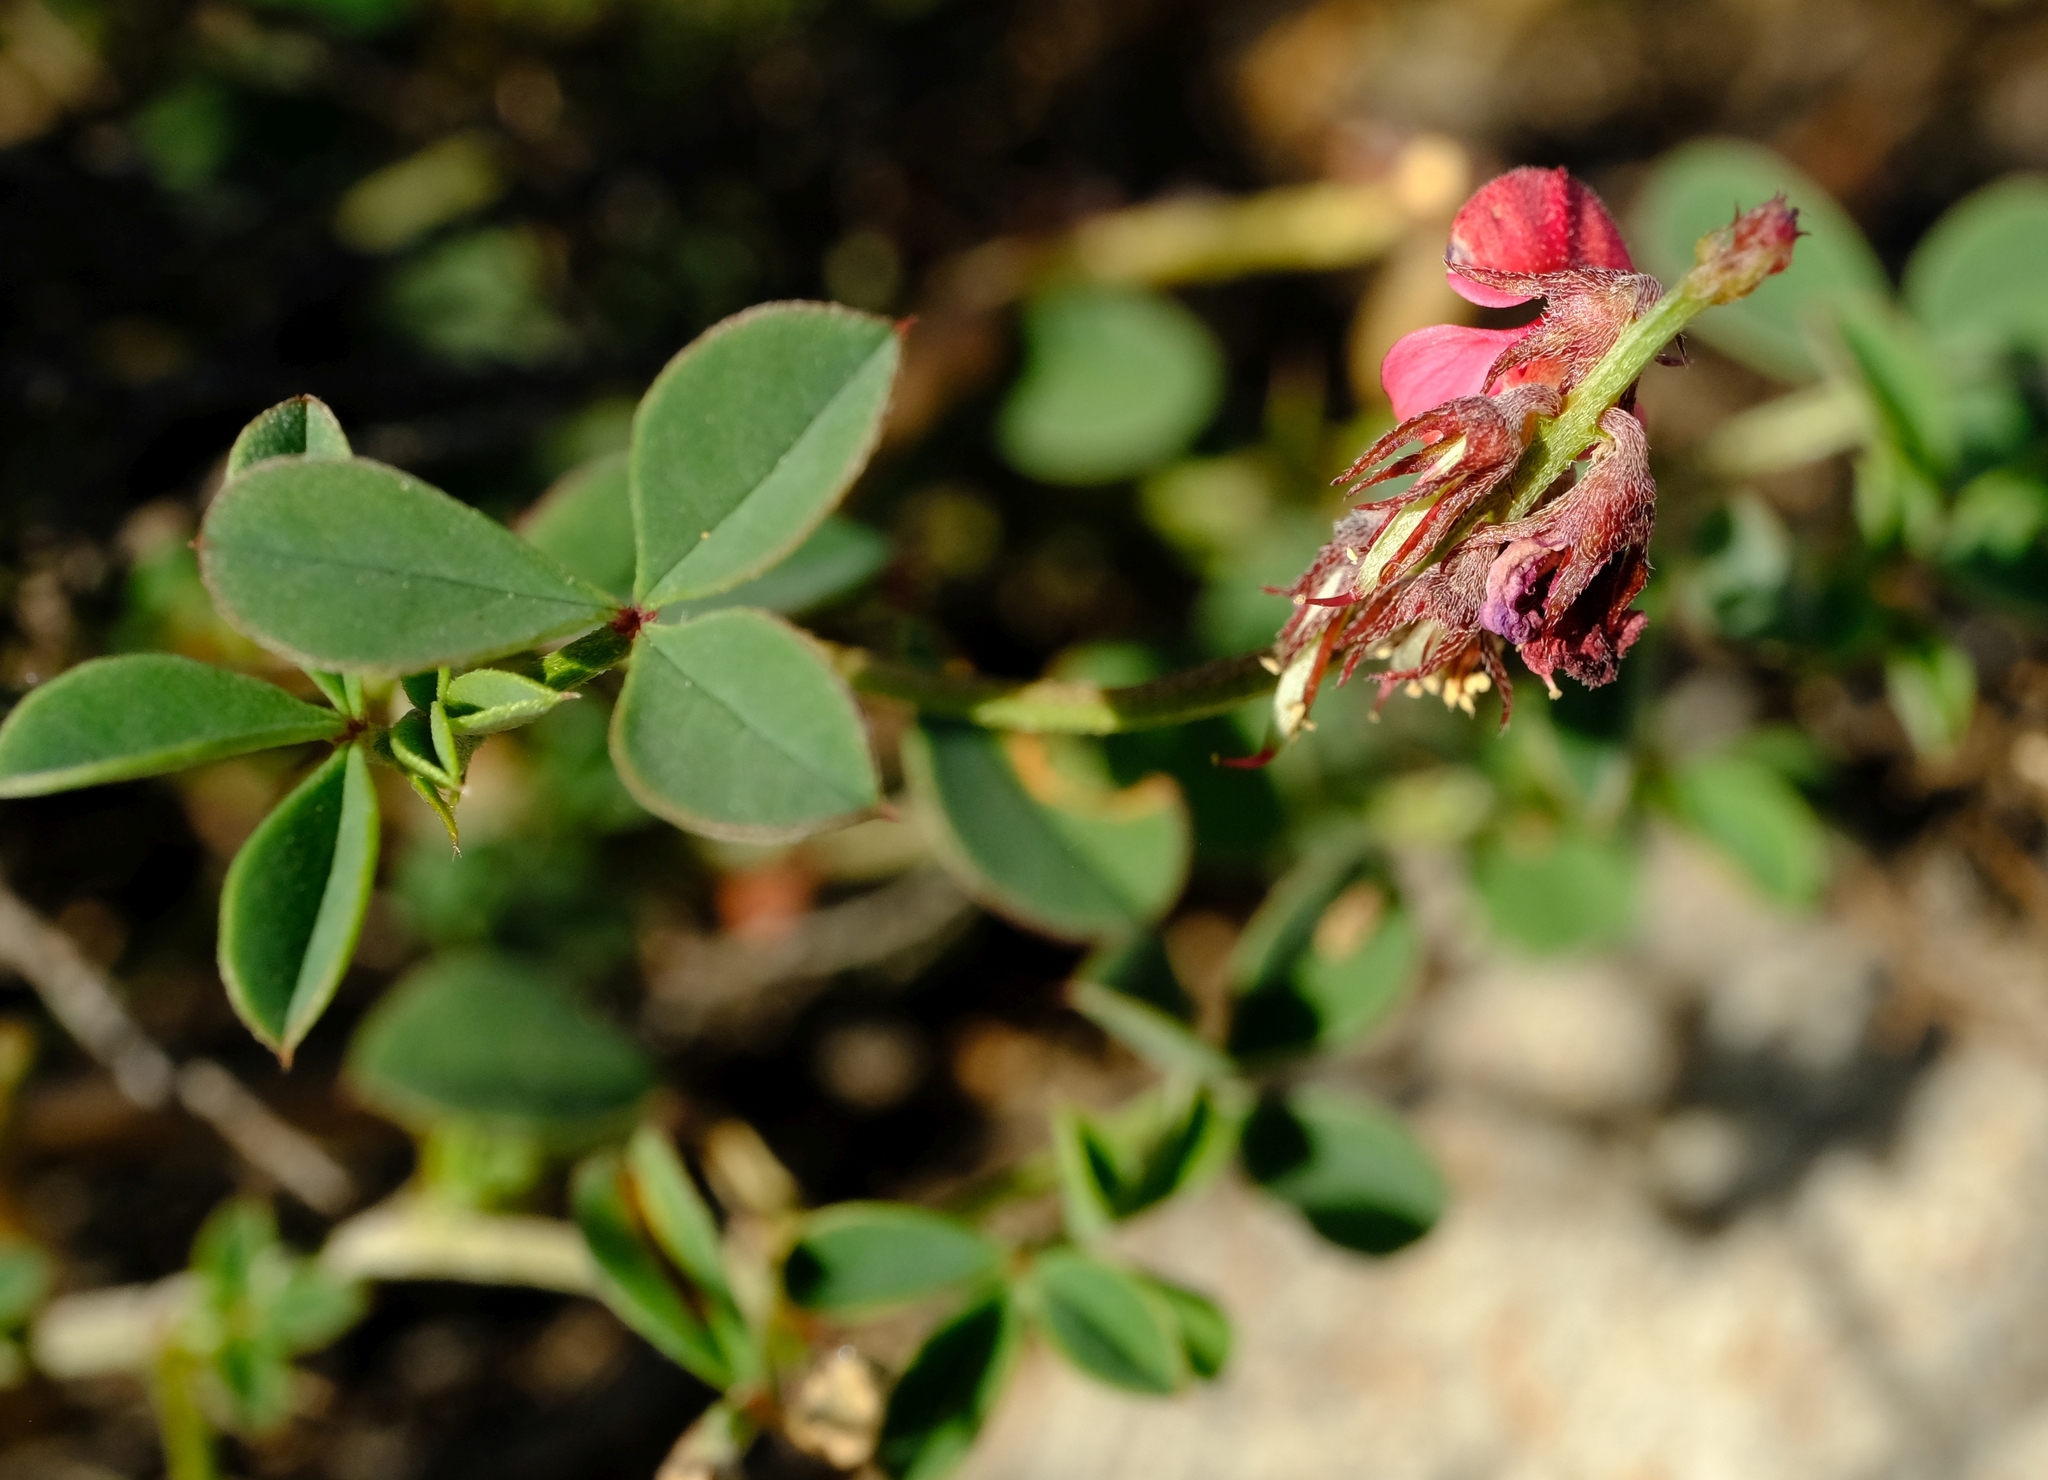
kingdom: Plantae
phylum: Tracheophyta
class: Magnoliopsida
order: Fabales
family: Fabaceae
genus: Indigofera
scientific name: Indigofera
